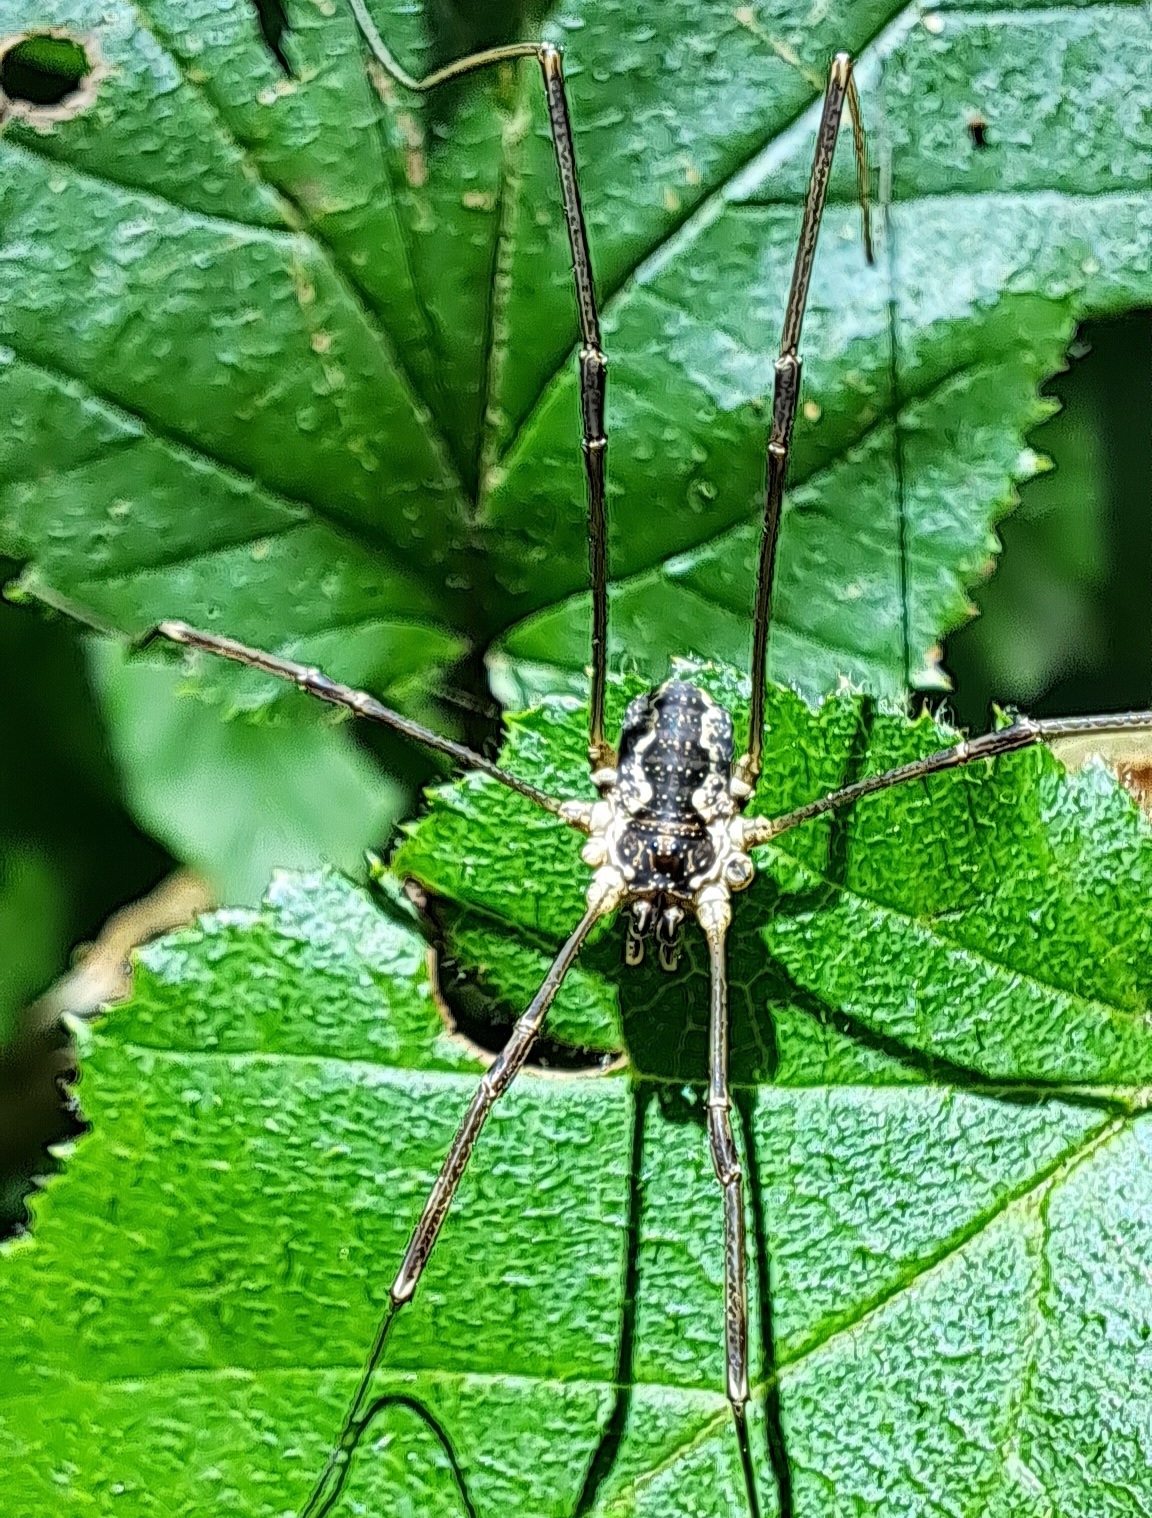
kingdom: Animalia
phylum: Arthropoda
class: Arachnida
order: Opiliones
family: Phalangiidae
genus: Mitopus
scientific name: Mitopus morio
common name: Saddleback harvestman
